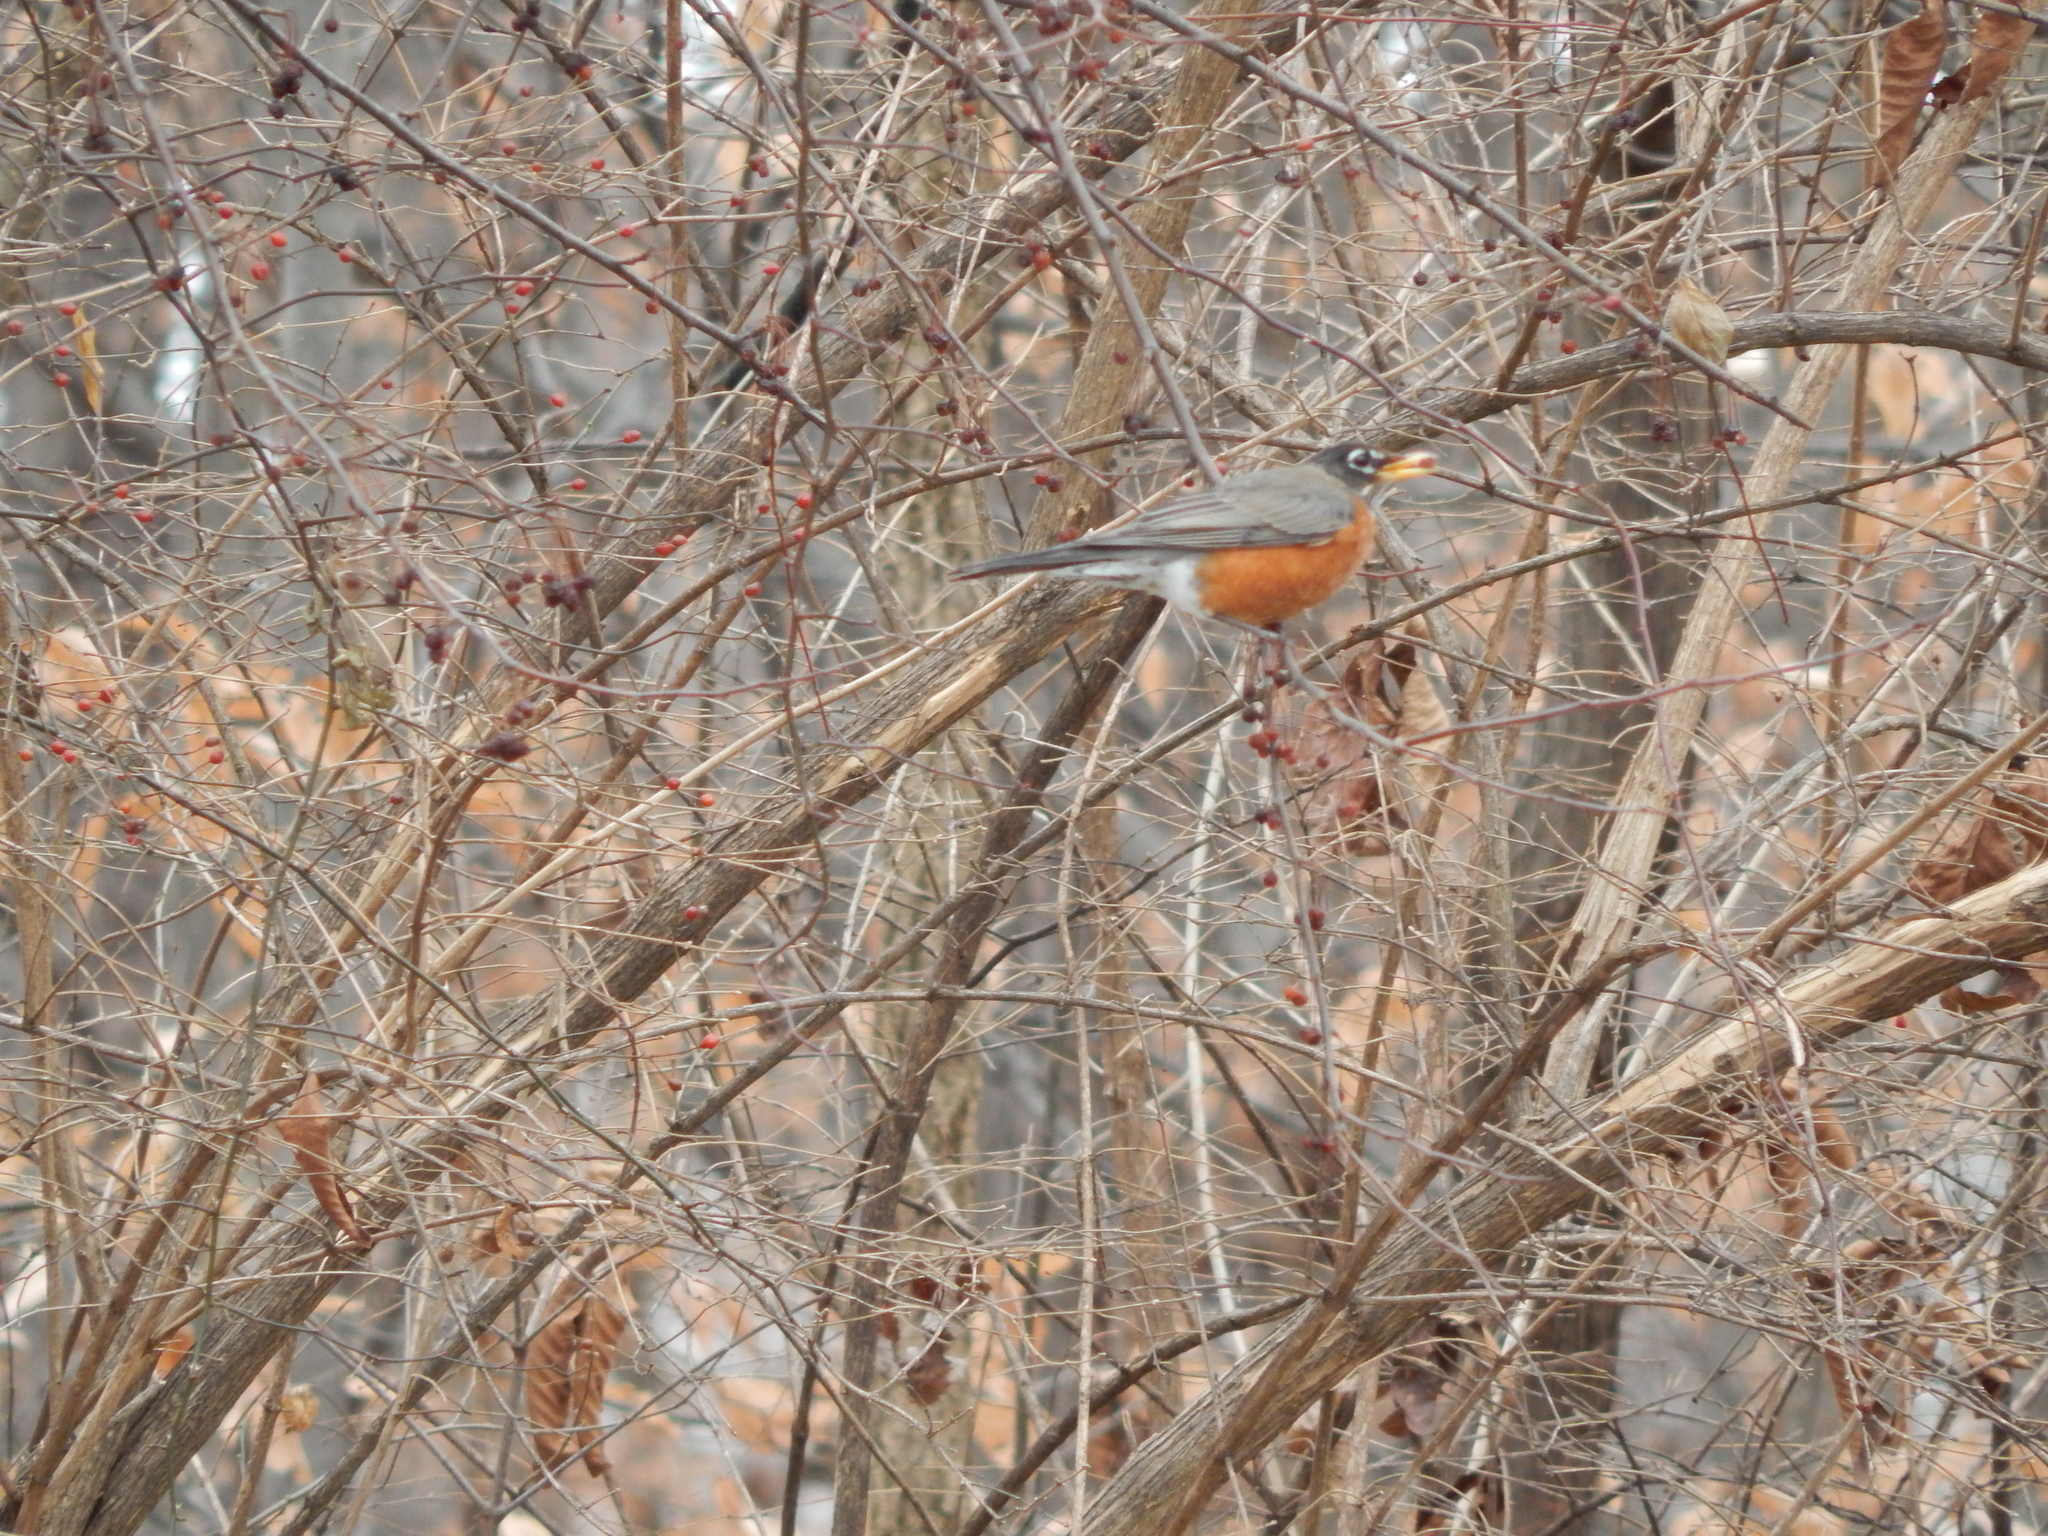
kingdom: Animalia
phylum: Chordata
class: Aves
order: Passeriformes
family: Turdidae
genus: Turdus
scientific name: Turdus migratorius
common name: American robin
